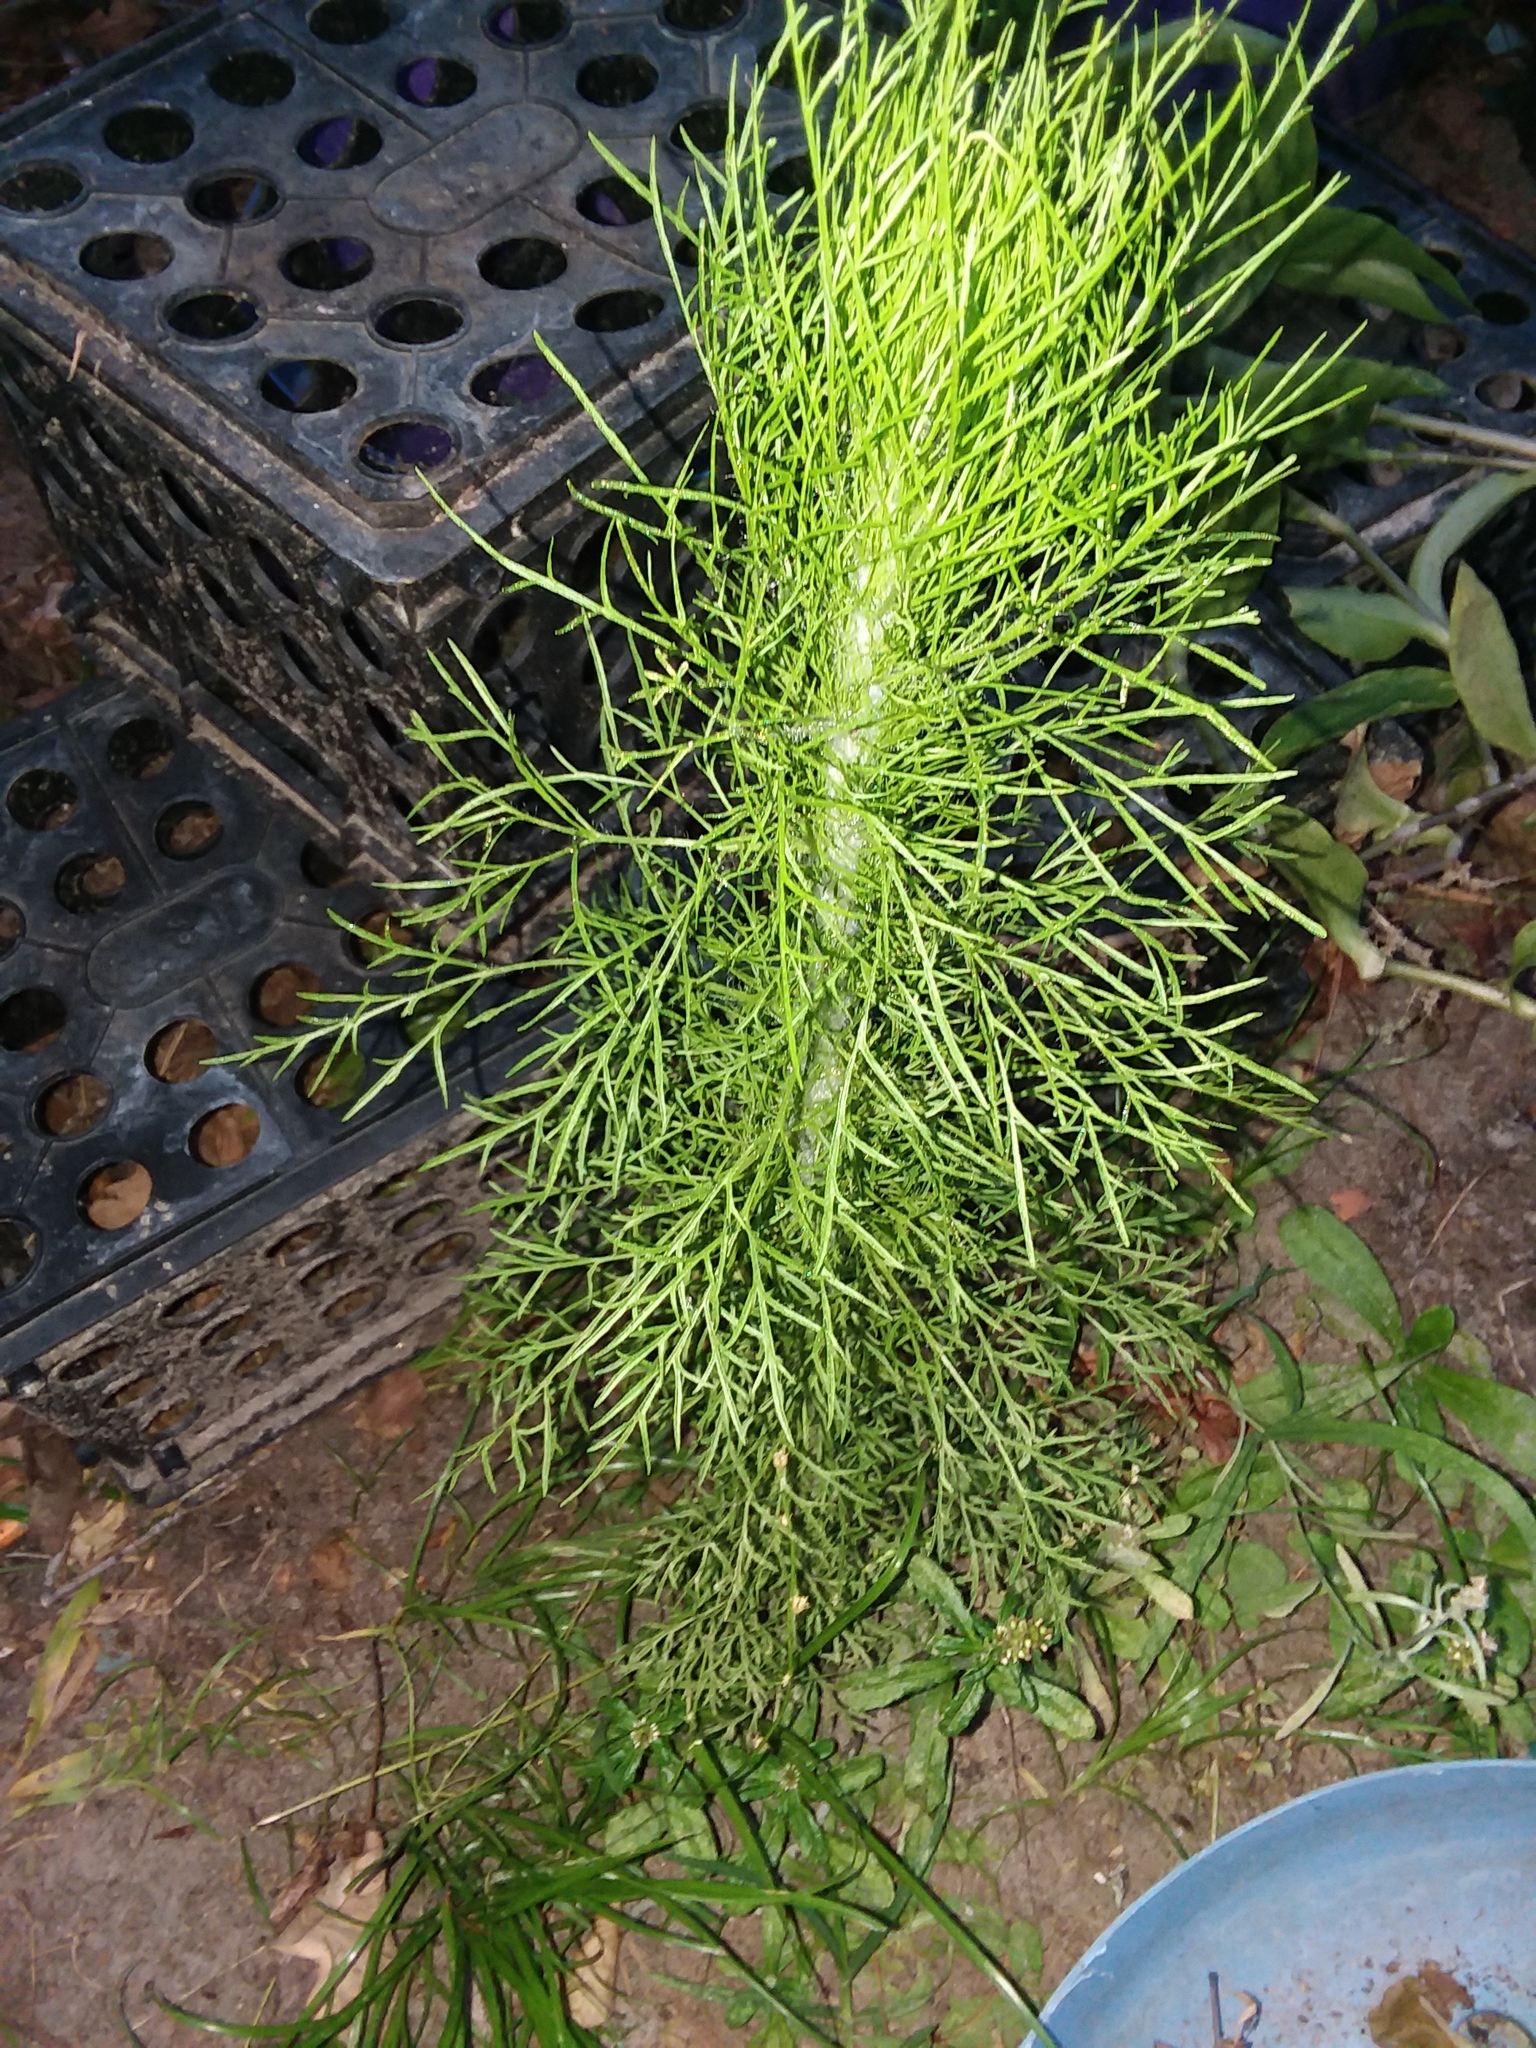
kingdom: Plantae
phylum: Tracheophyta
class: Magnoliopsida
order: Asterales
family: Asteraceae
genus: Eupatorium
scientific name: Eupatorium capillifolium
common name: Dog-fennel
